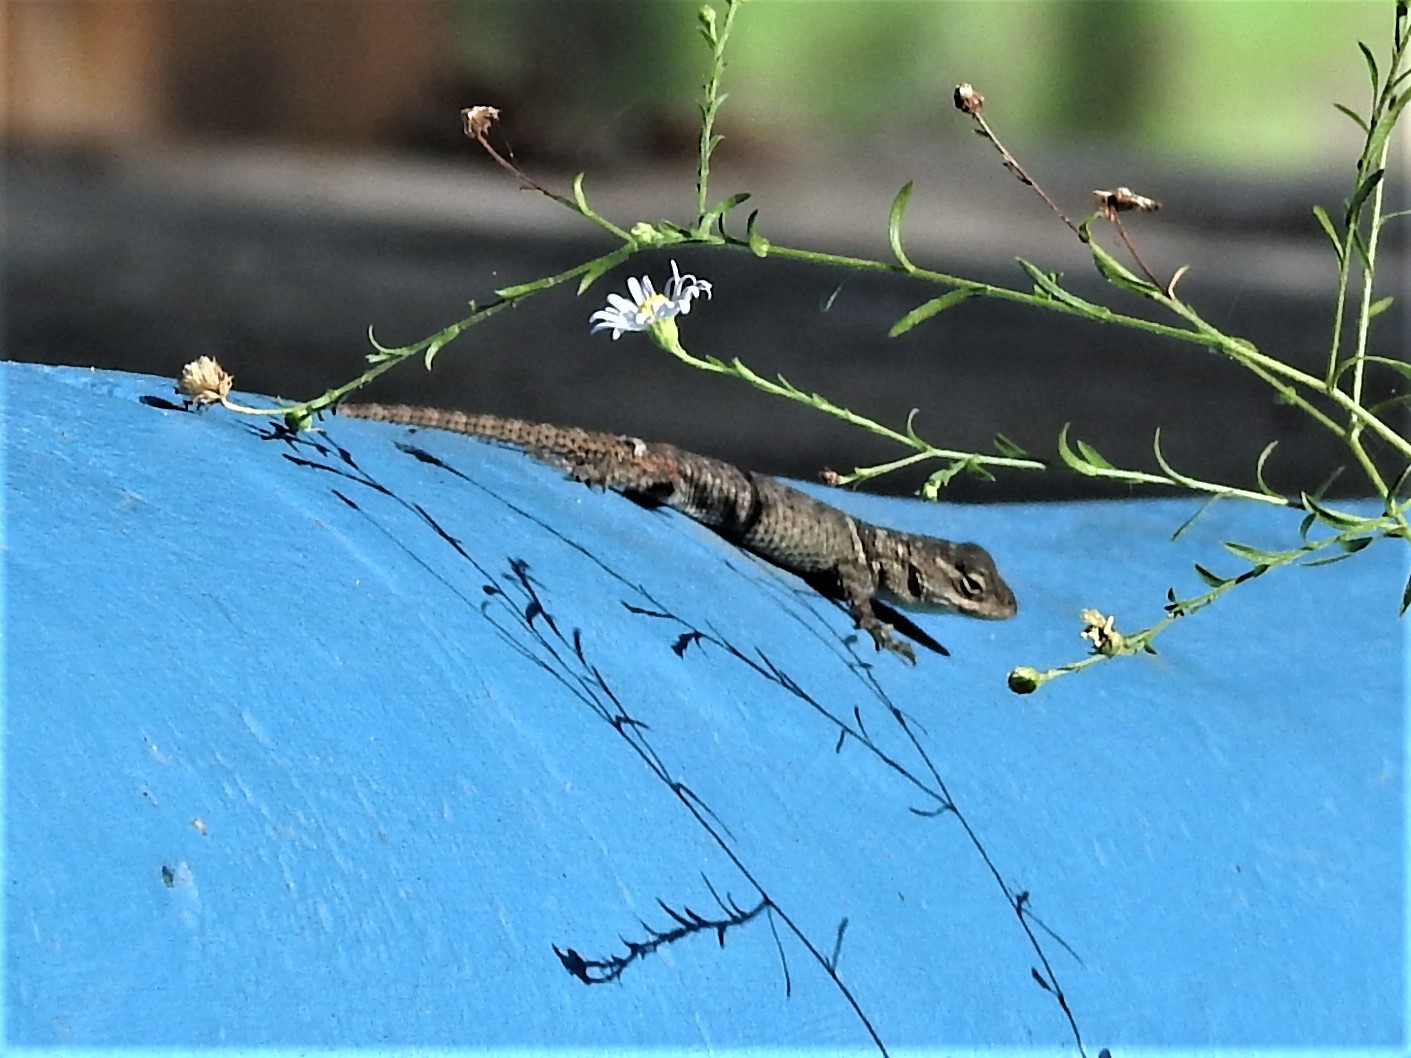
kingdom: Animalia
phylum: Chordata
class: Squamata
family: Phrynosomatidae
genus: Sceloporus
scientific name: Sceloporus cyanogenys
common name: Blue spiny lizard
